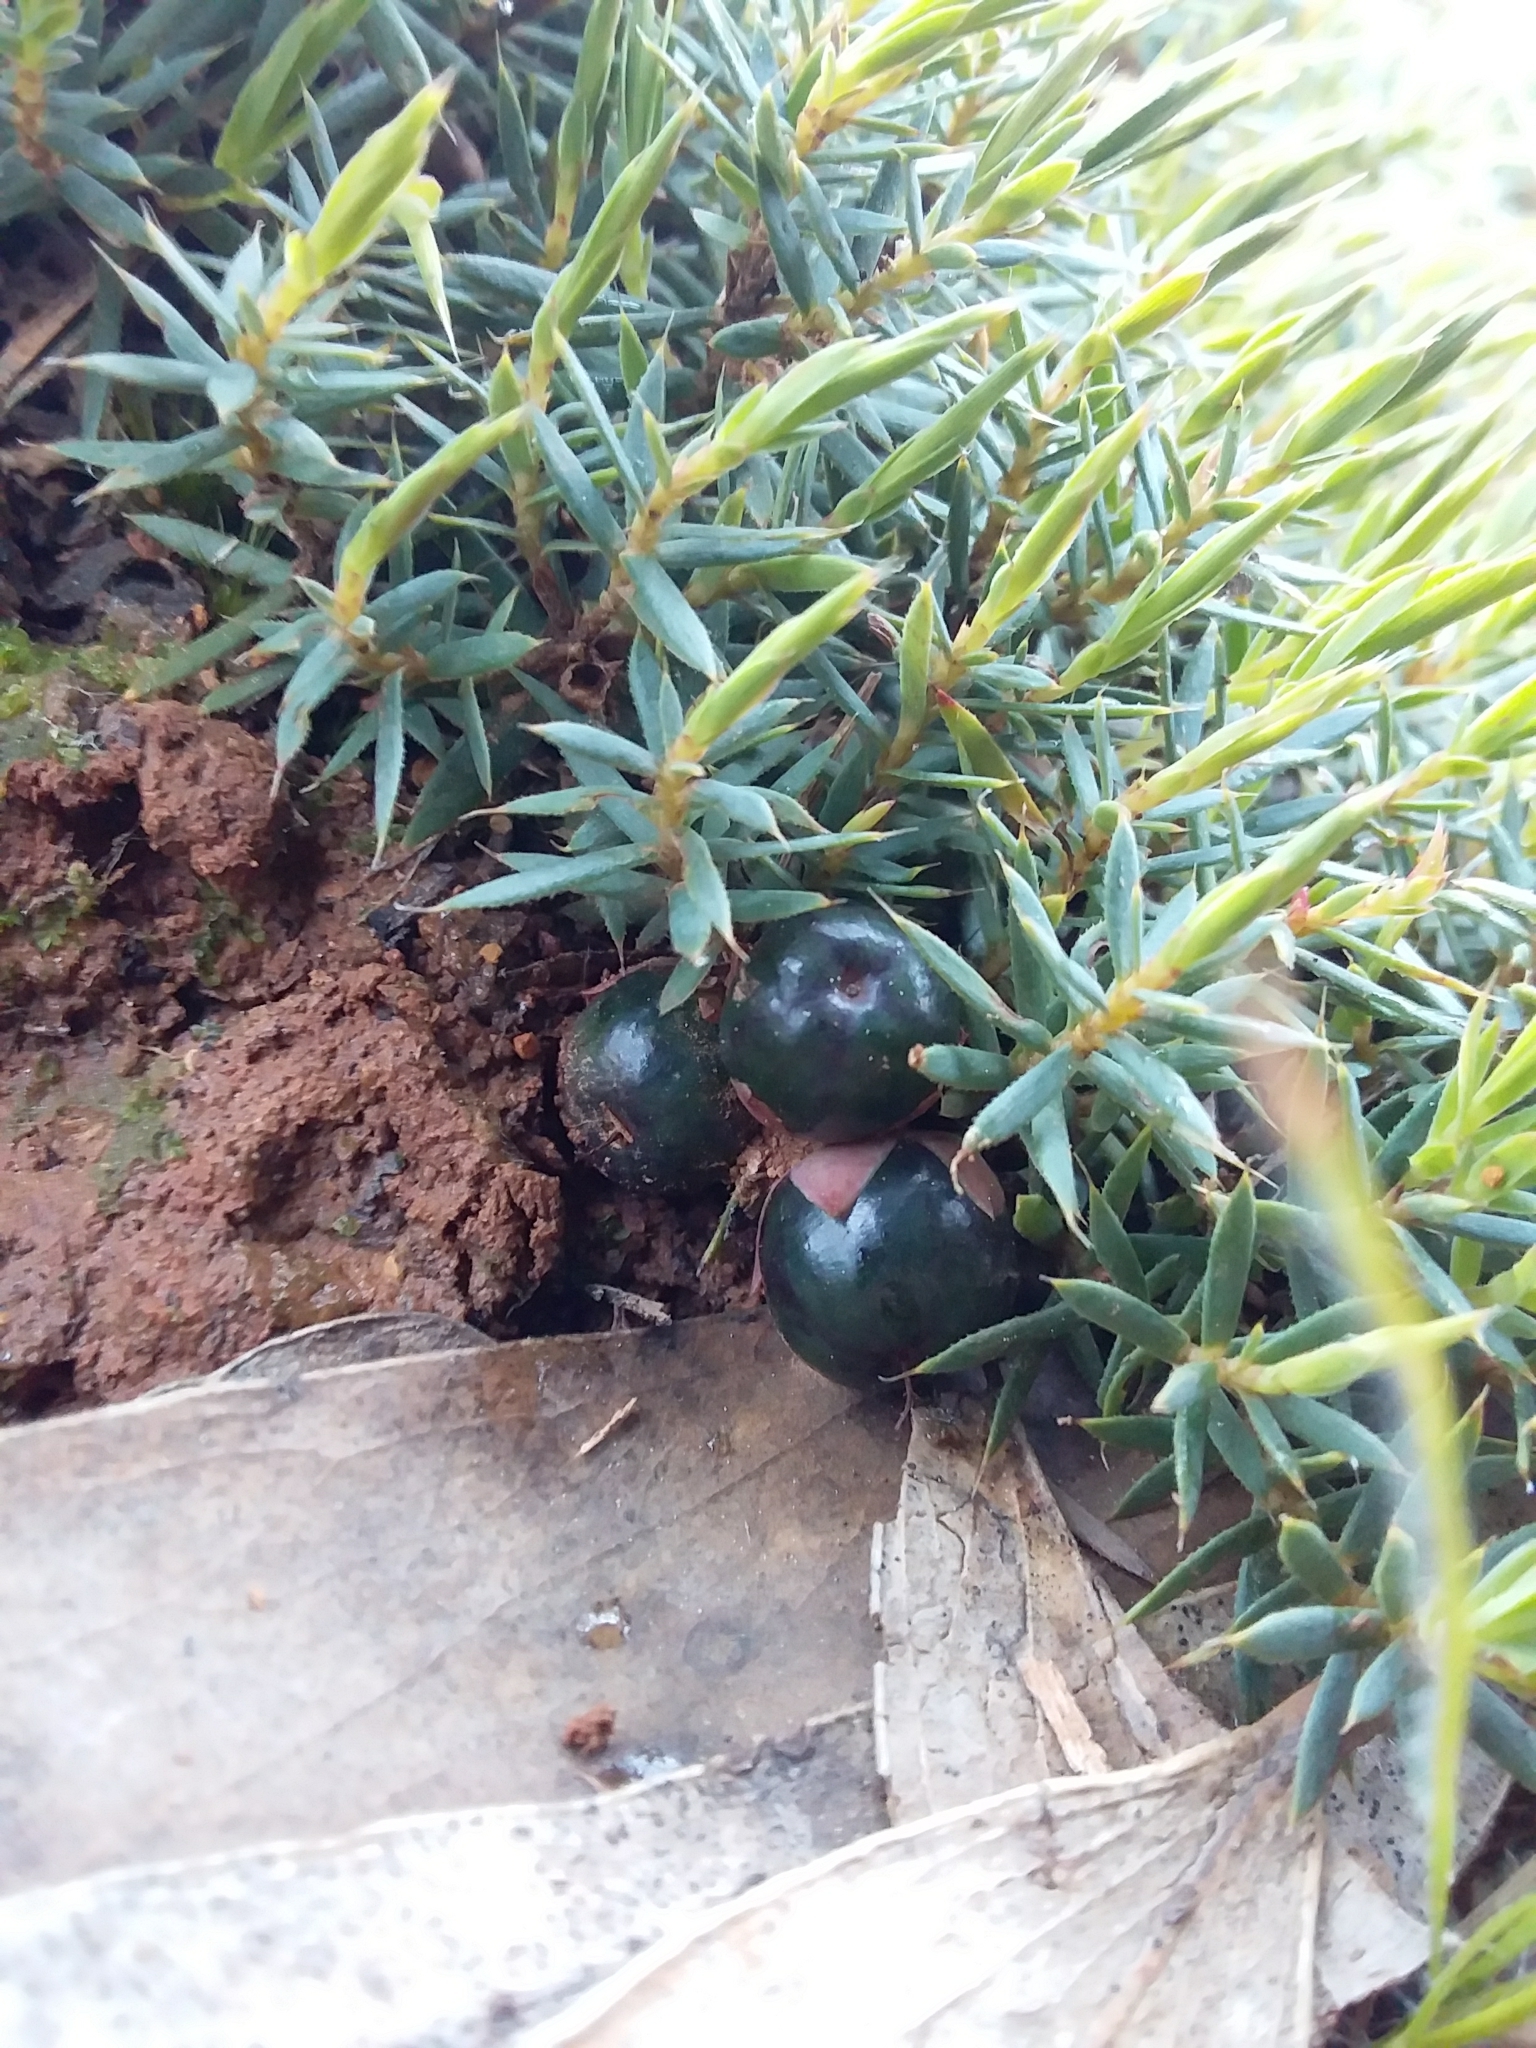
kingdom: Plantae
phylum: Tracheophyta
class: Magnoliopsida
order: Ericales
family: Ericaceae
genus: Styphelia
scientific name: Styphelia humifusa
